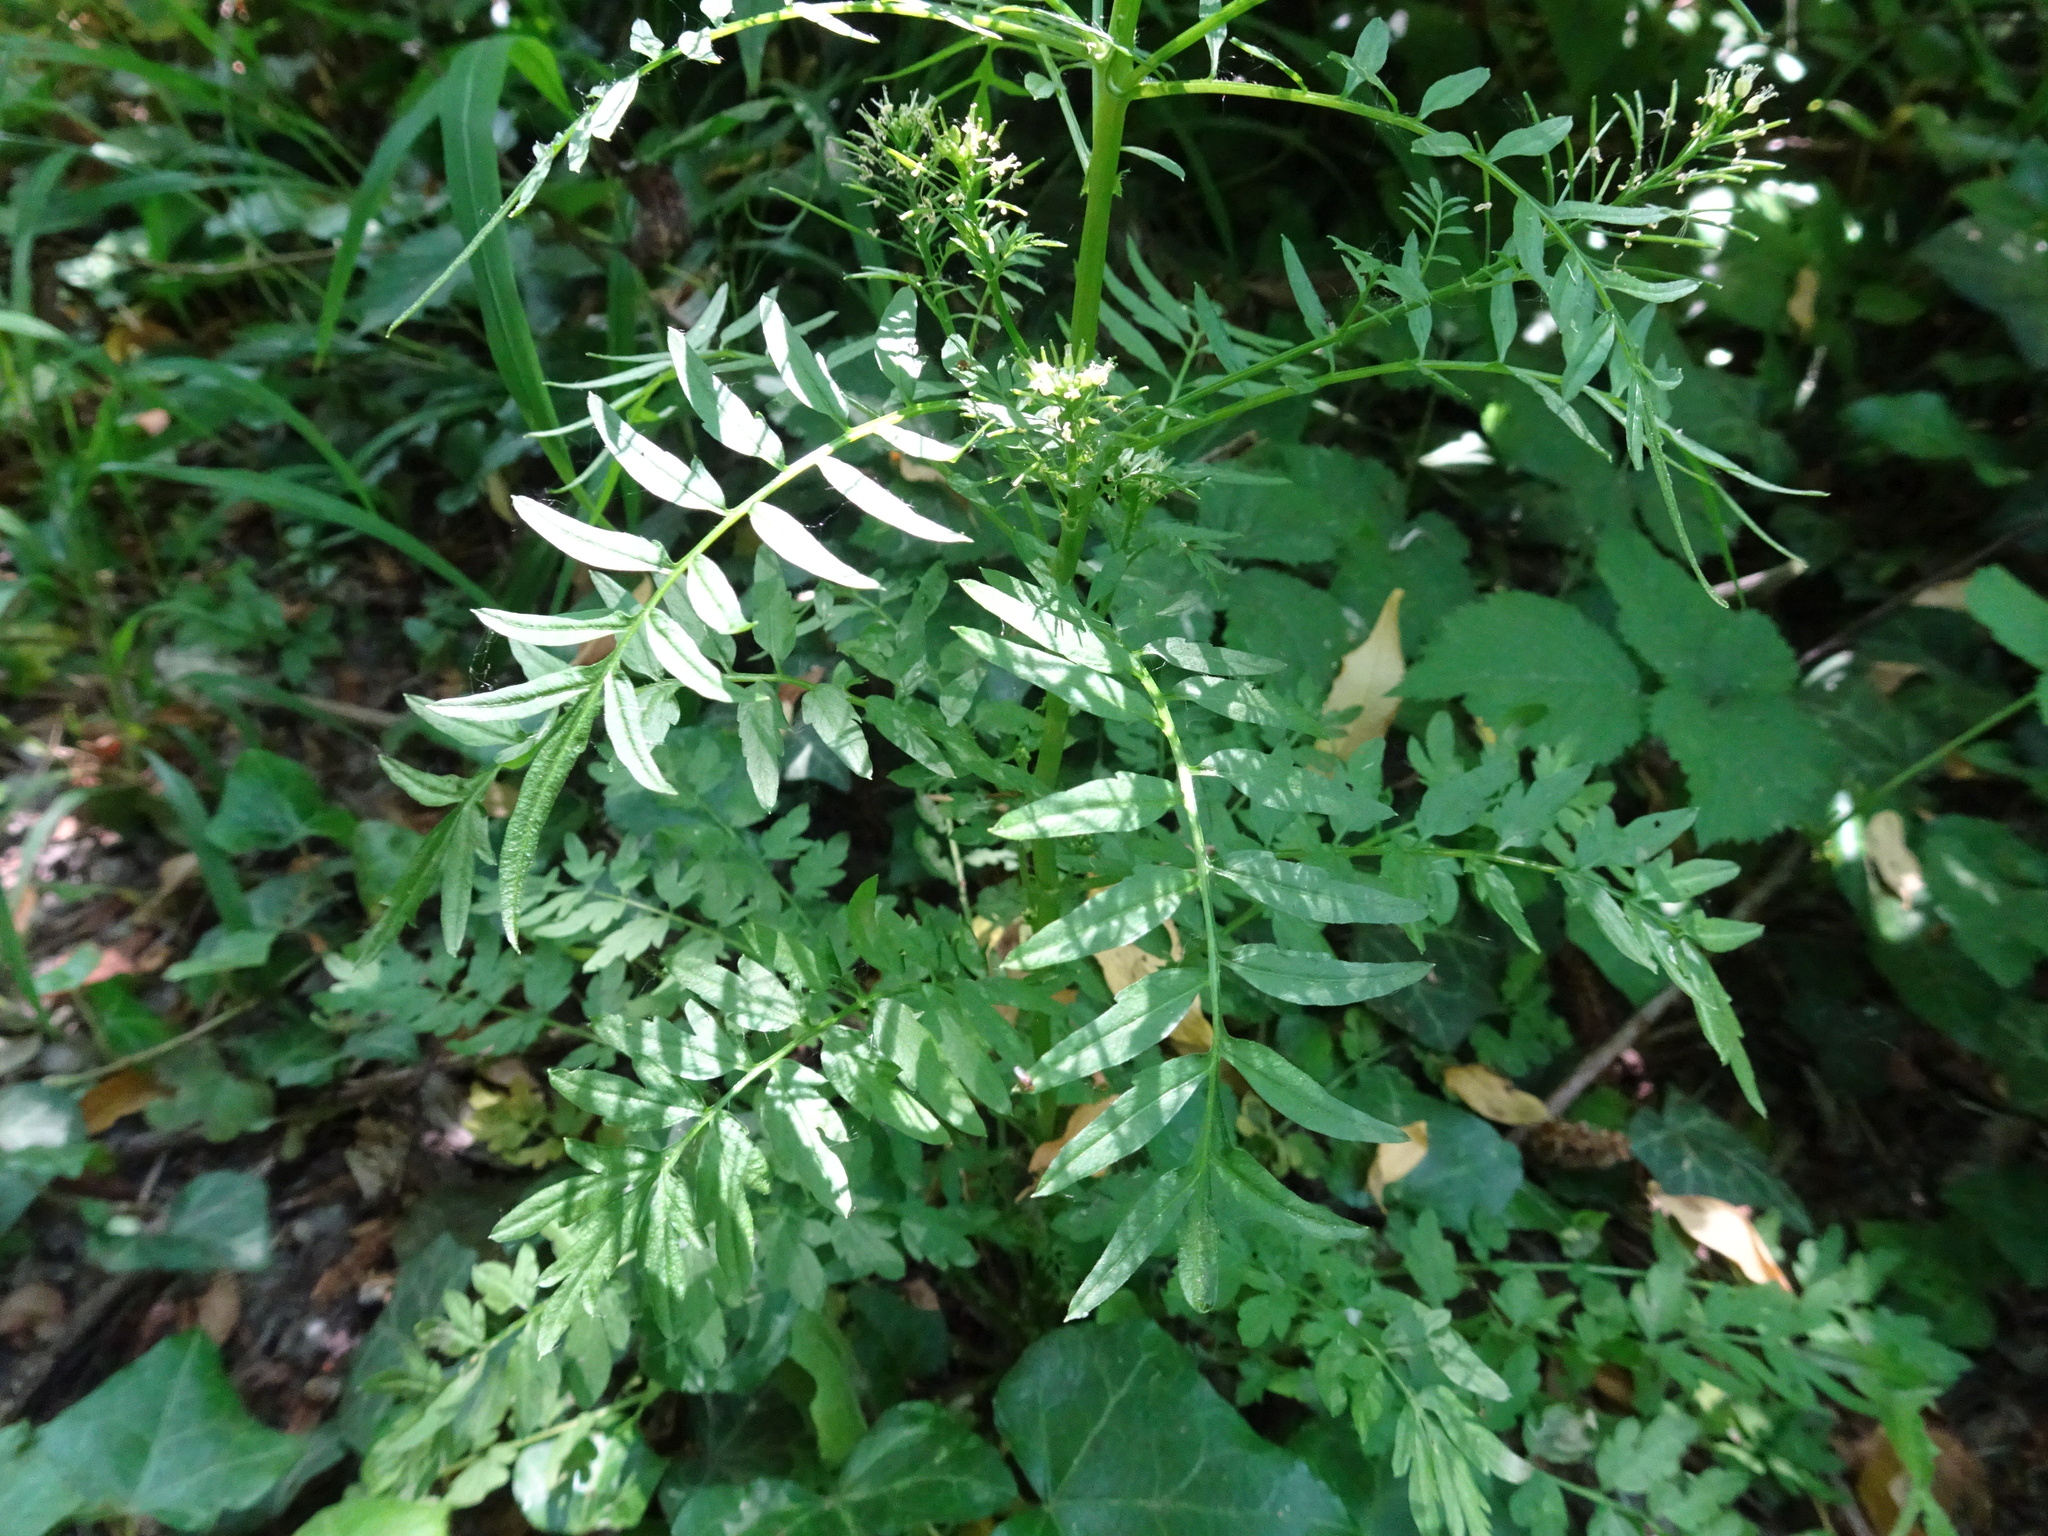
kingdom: Plantae
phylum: Tracheophyta
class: Magnoliopsida
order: Brassicales
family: Brassicaceae
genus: Cardamine
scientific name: Cardamine impatiens
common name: Narrow-leaved bitter-cress
